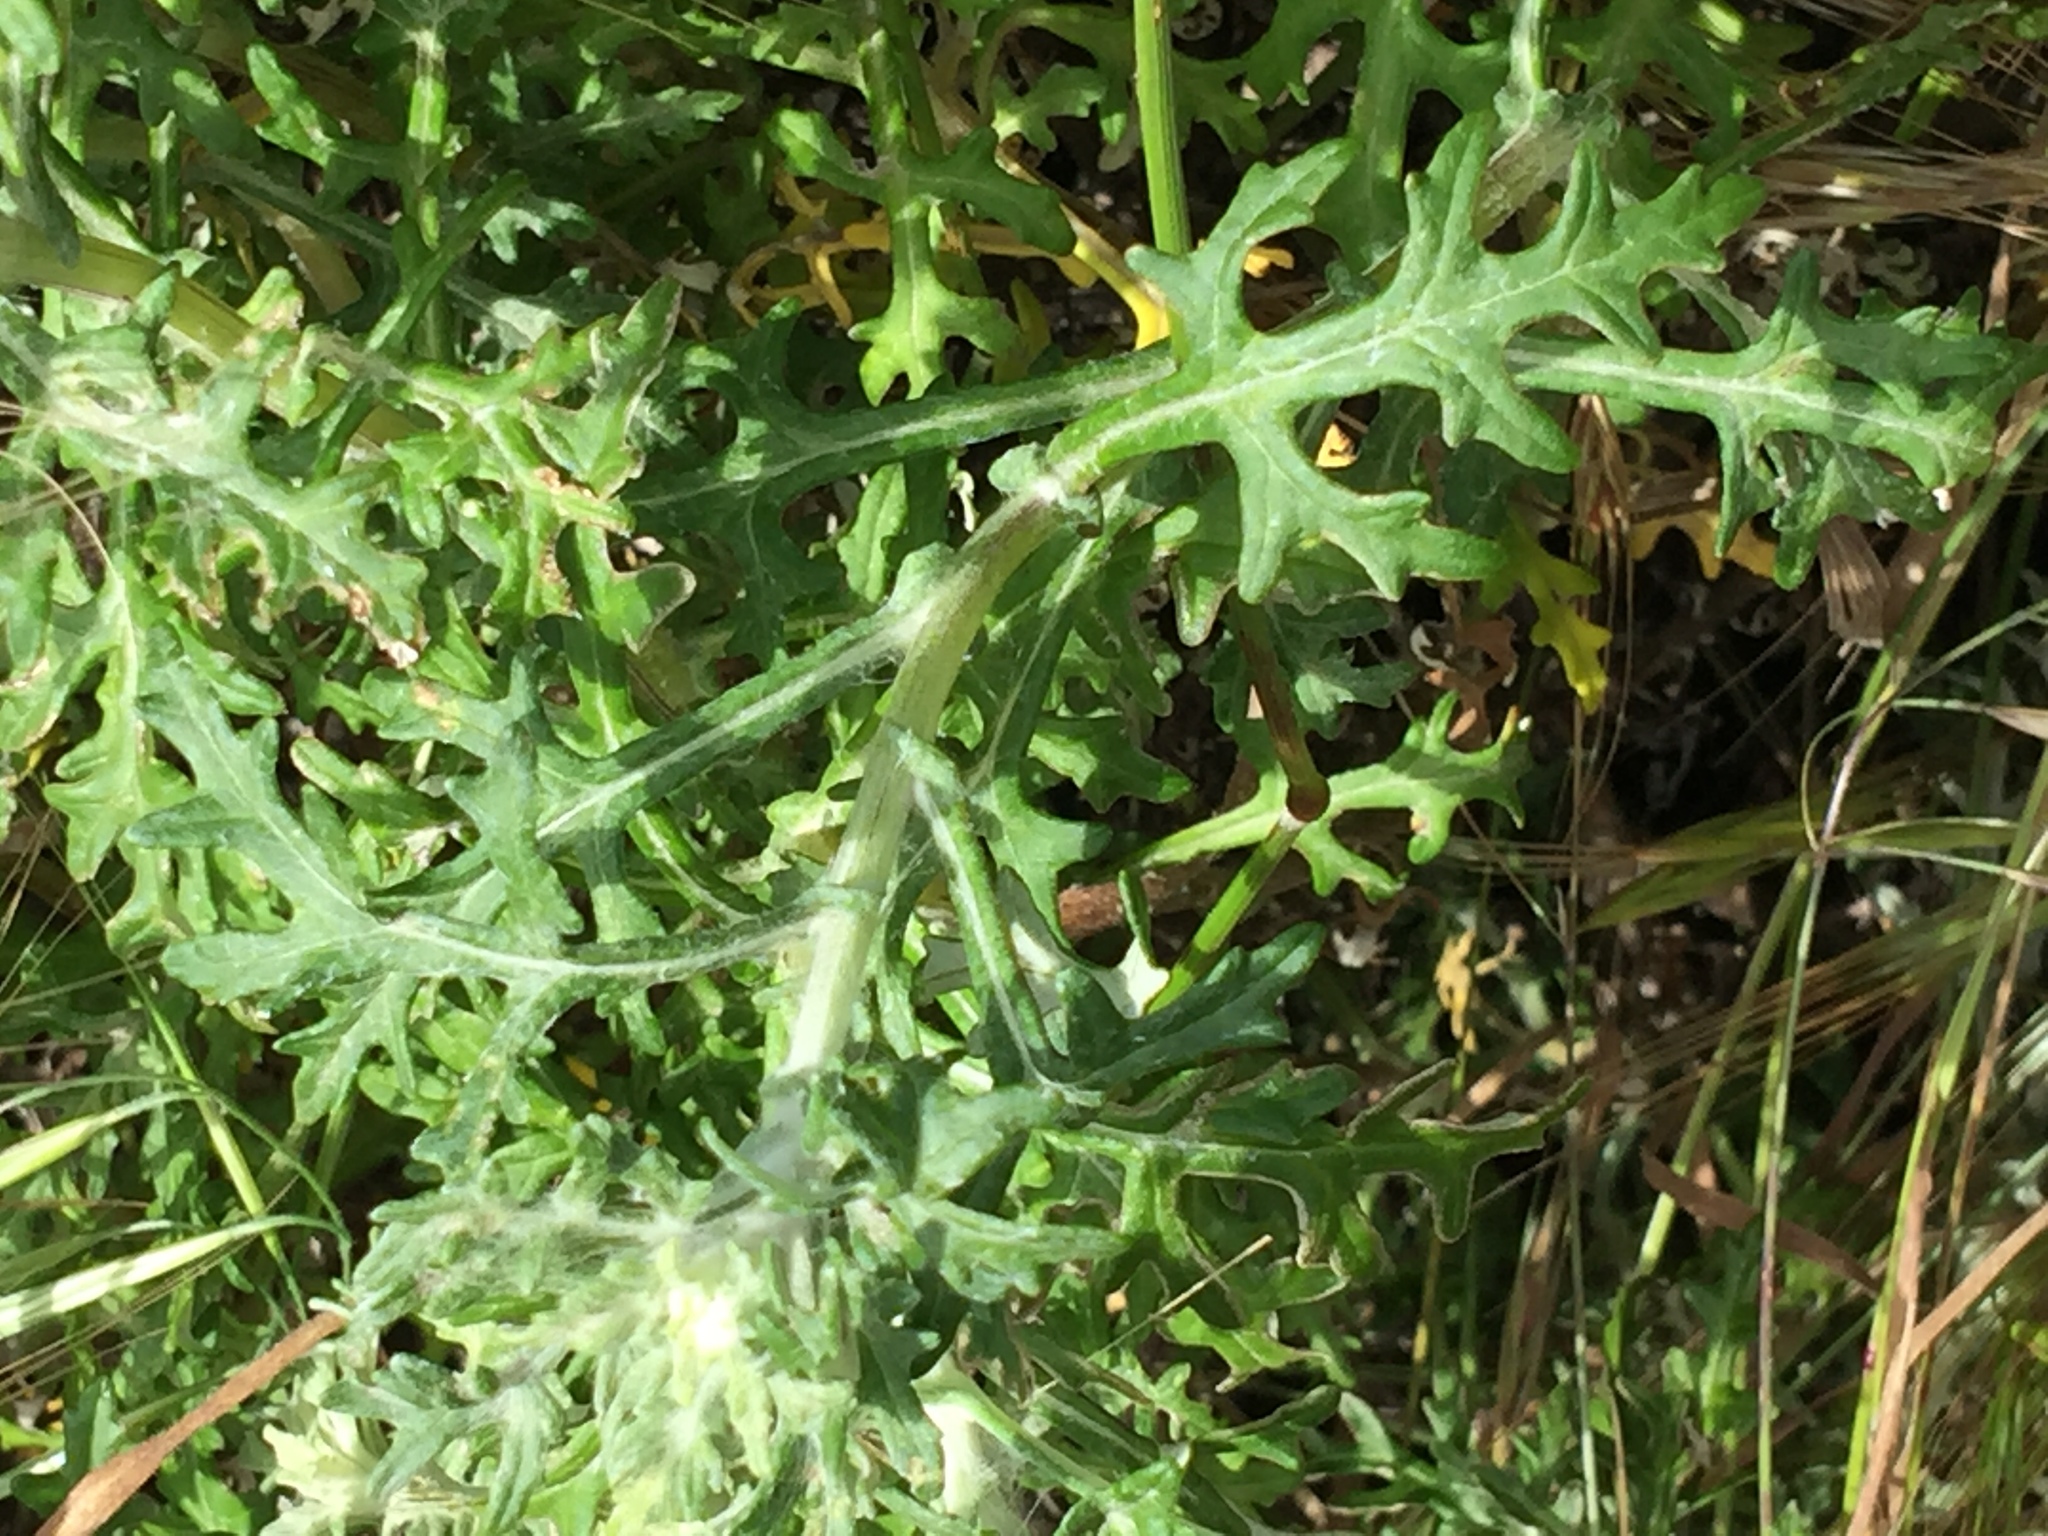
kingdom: Plantae
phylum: Tracheophyta
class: Magnoliopsida
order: Asterales
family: Asteraceae
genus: Eriophyllum
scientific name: Eriophyllum staechadifolium
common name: Lizardtail
